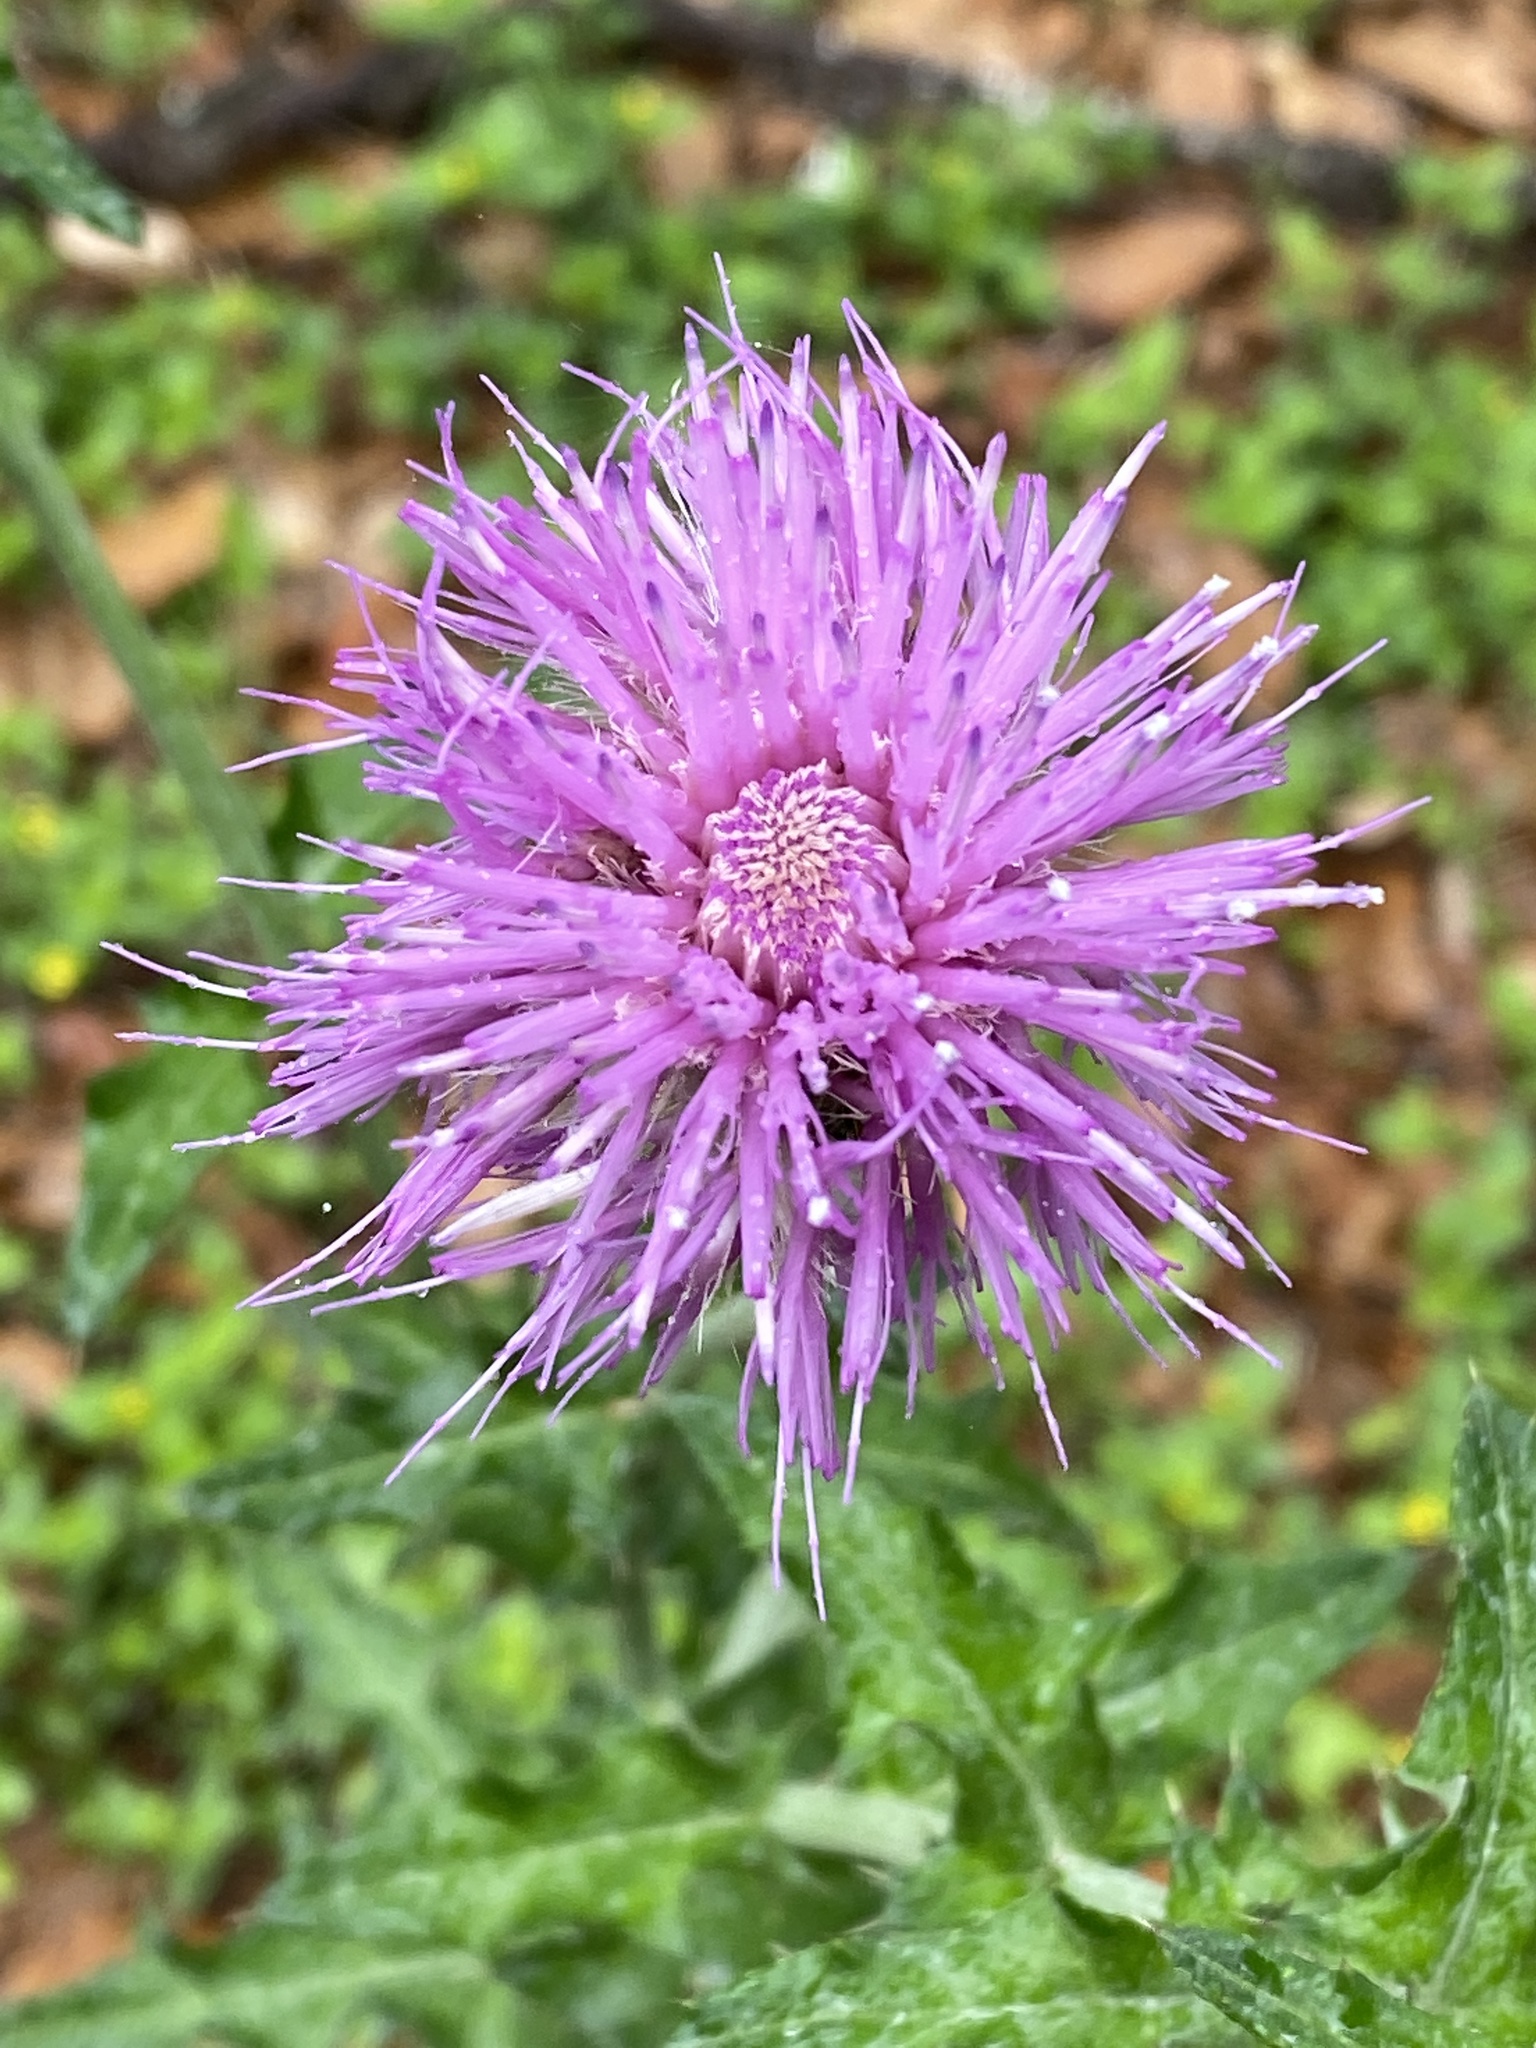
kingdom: Plantae
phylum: Tracheophyta
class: Magnoliopsida
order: Asterales
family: Asteraceae
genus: Cirsium
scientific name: Cirsium texanum
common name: Texas purple thistle
